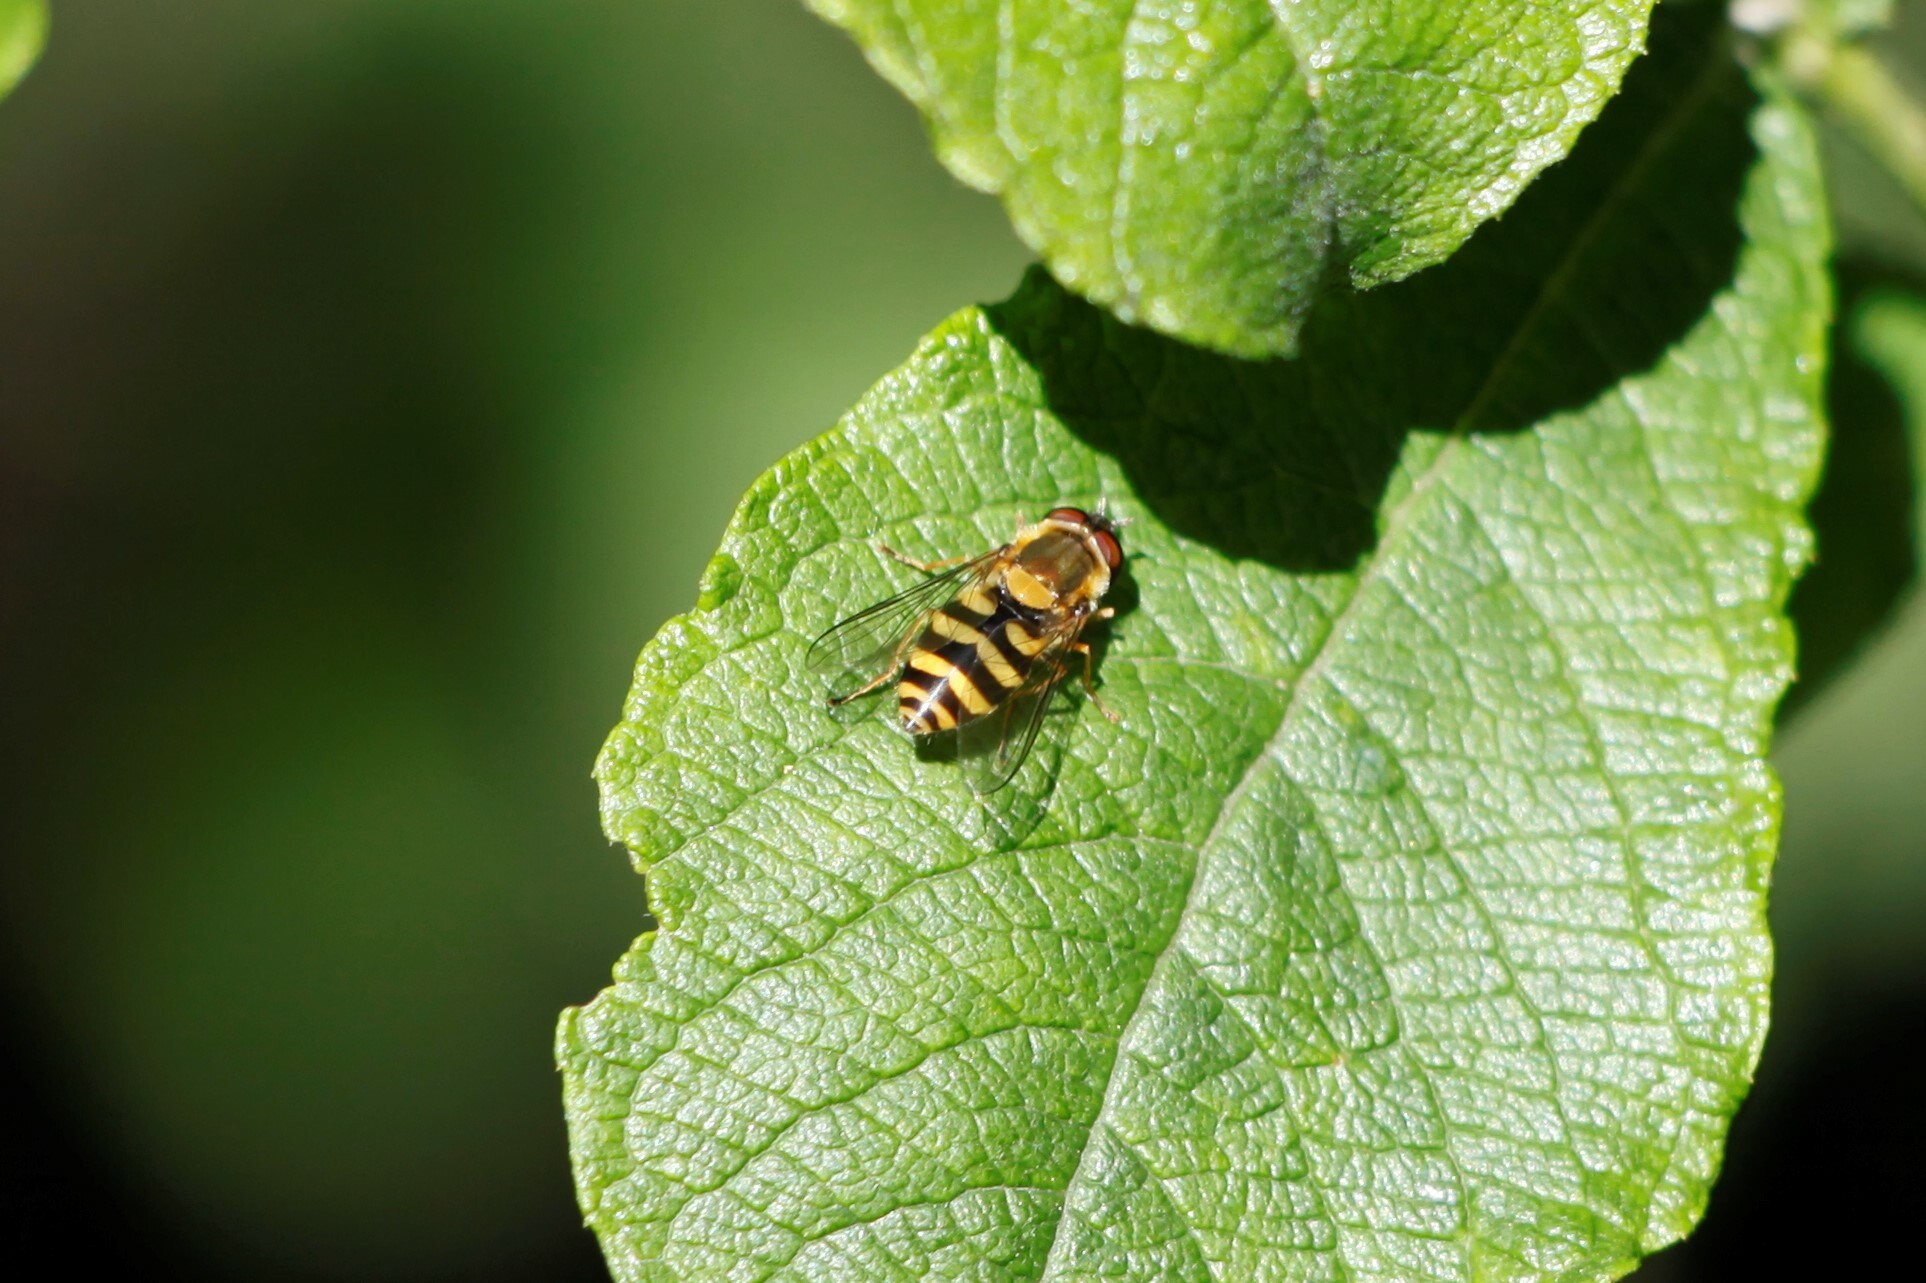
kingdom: Animalia
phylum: Arthropoda
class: Insecta
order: Diptera
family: Syrphidae
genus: Syrphus
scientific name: Syrphus
